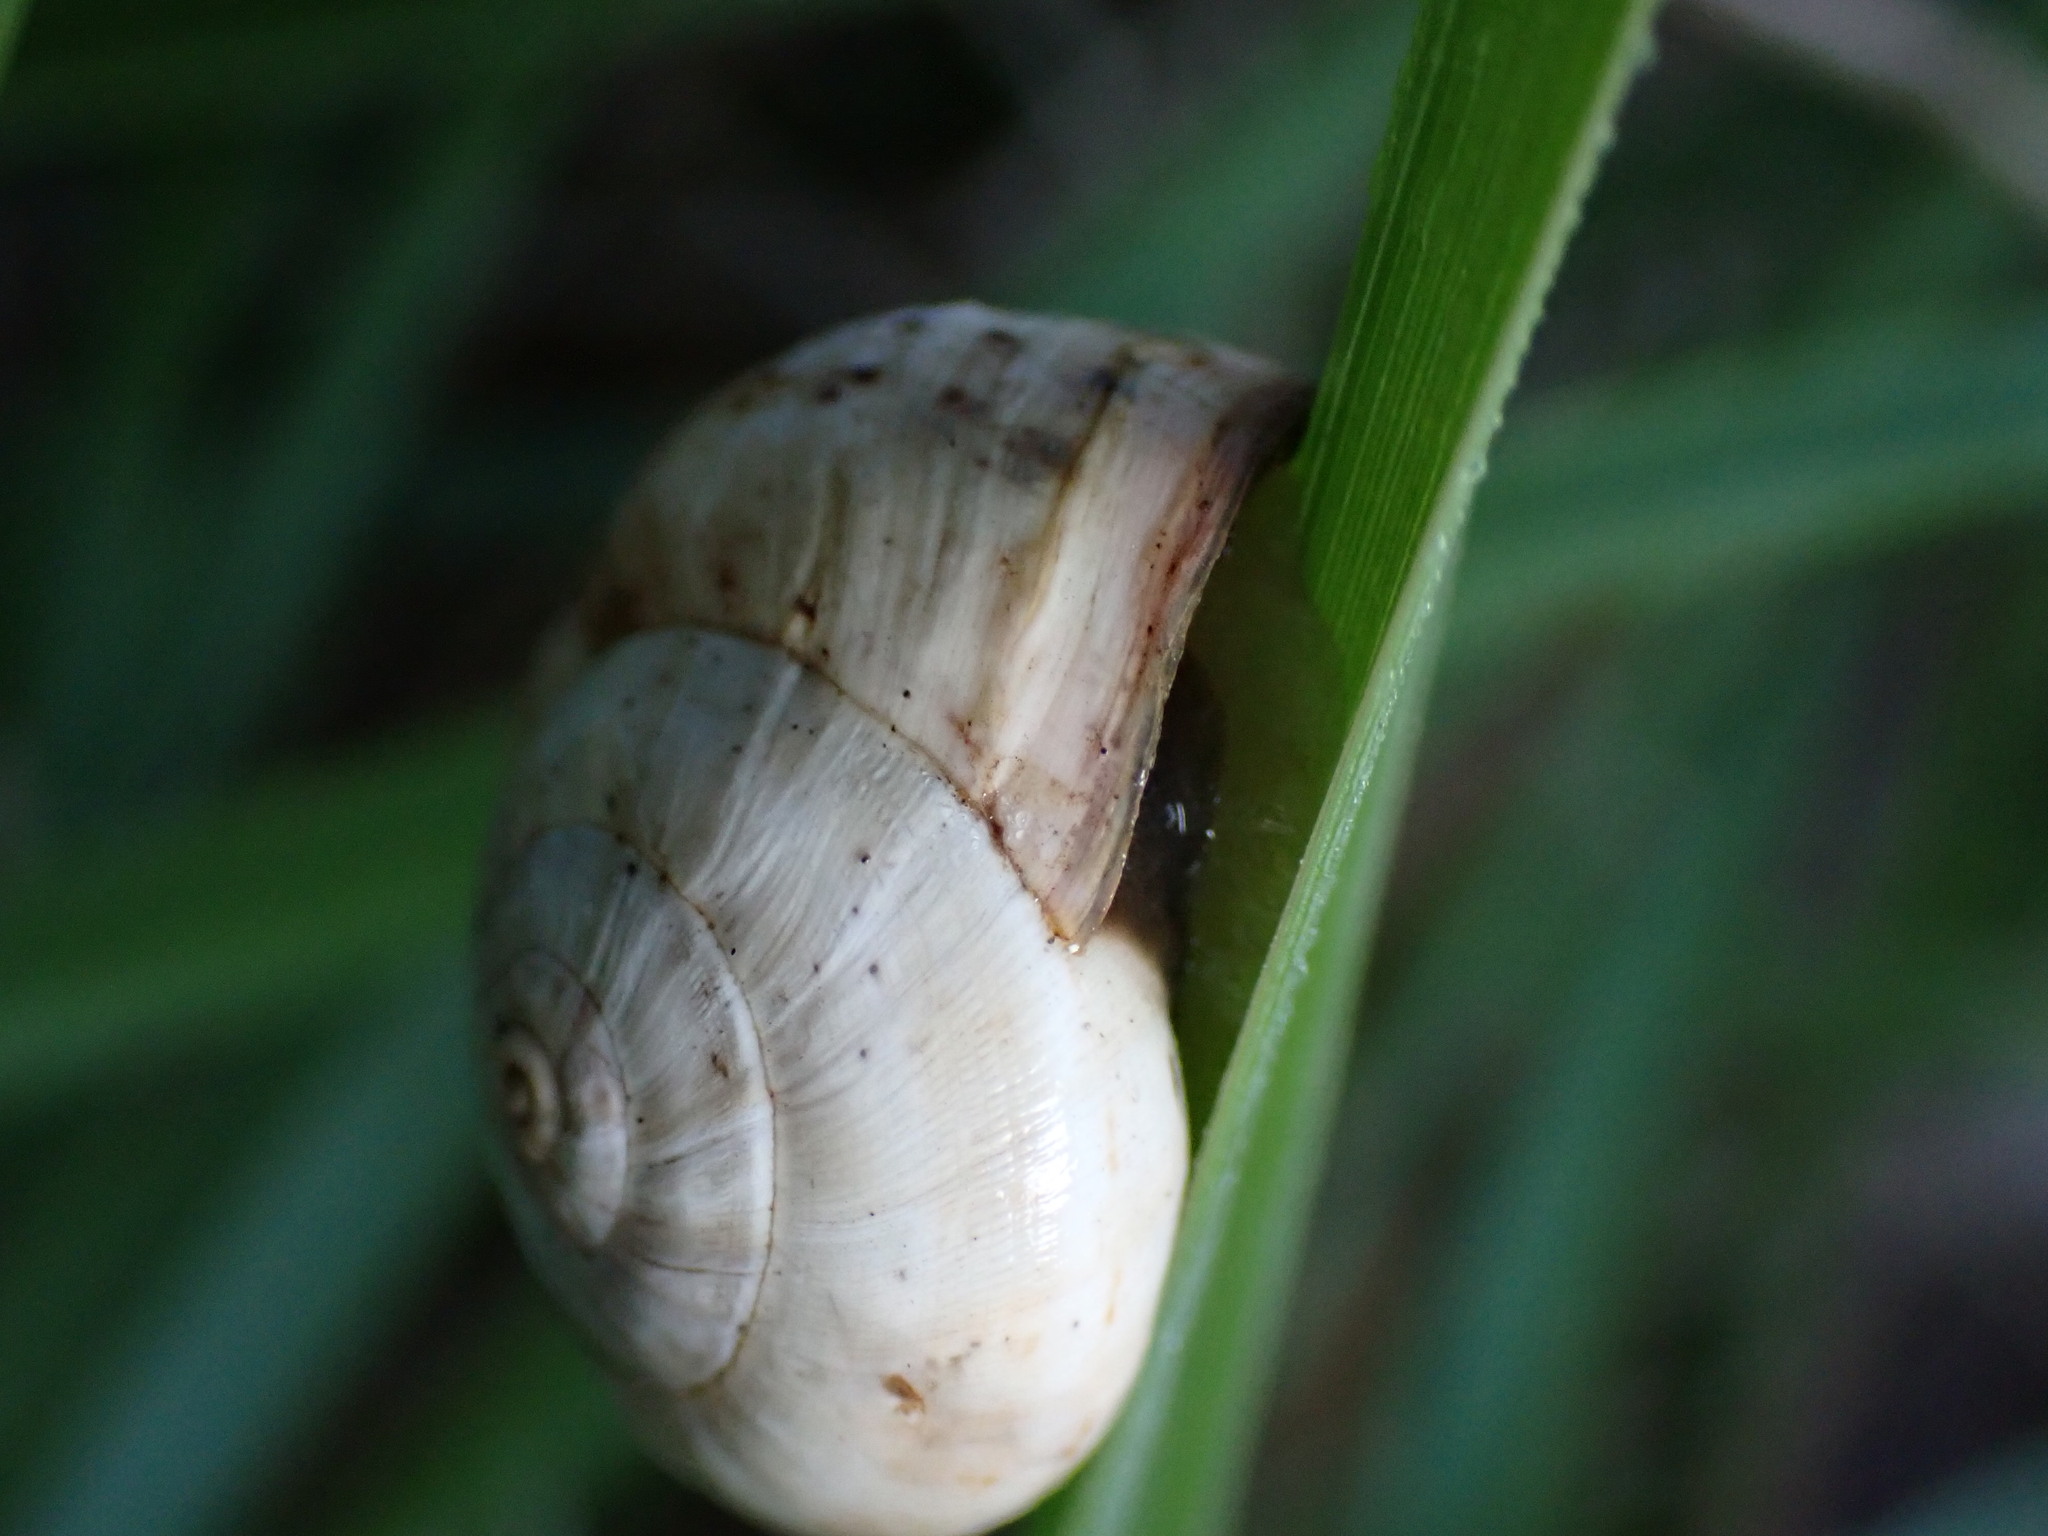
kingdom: Animalia
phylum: Mollusca
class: Gastropoda
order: Stylommatophora
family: Helicidae
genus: Theba
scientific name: Theba pisana
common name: White snail
